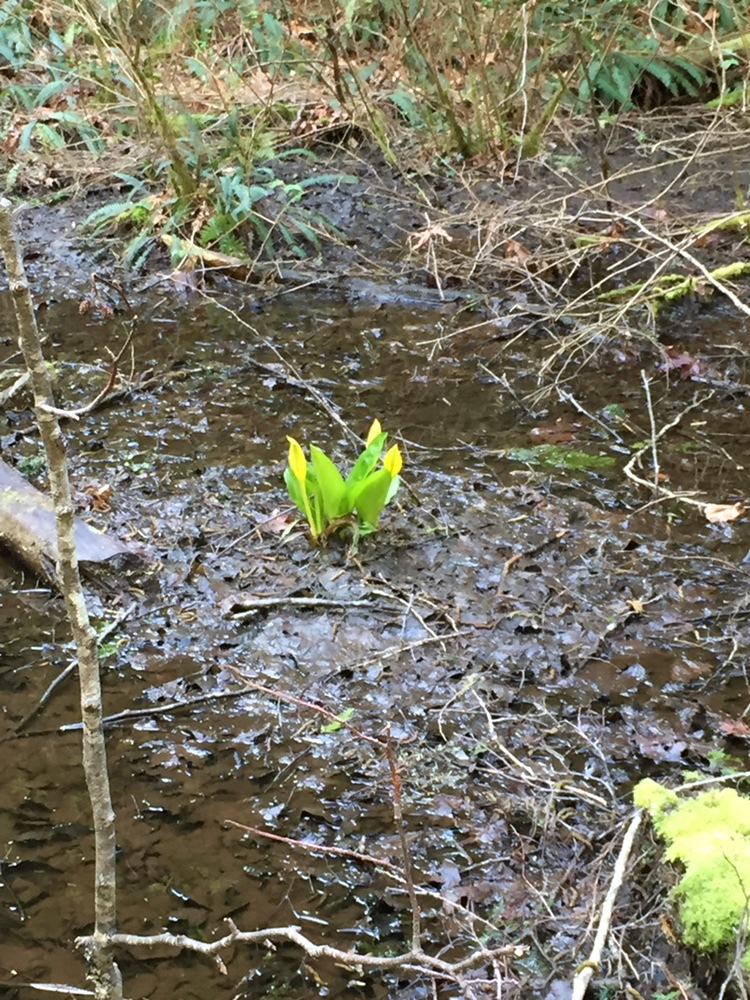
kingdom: Plantae
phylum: Tracheophyta
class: Liliopsida
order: Alismatales
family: Araceae
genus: Lysichiton
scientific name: Lysichiton americanus
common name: American skunk cabbage
